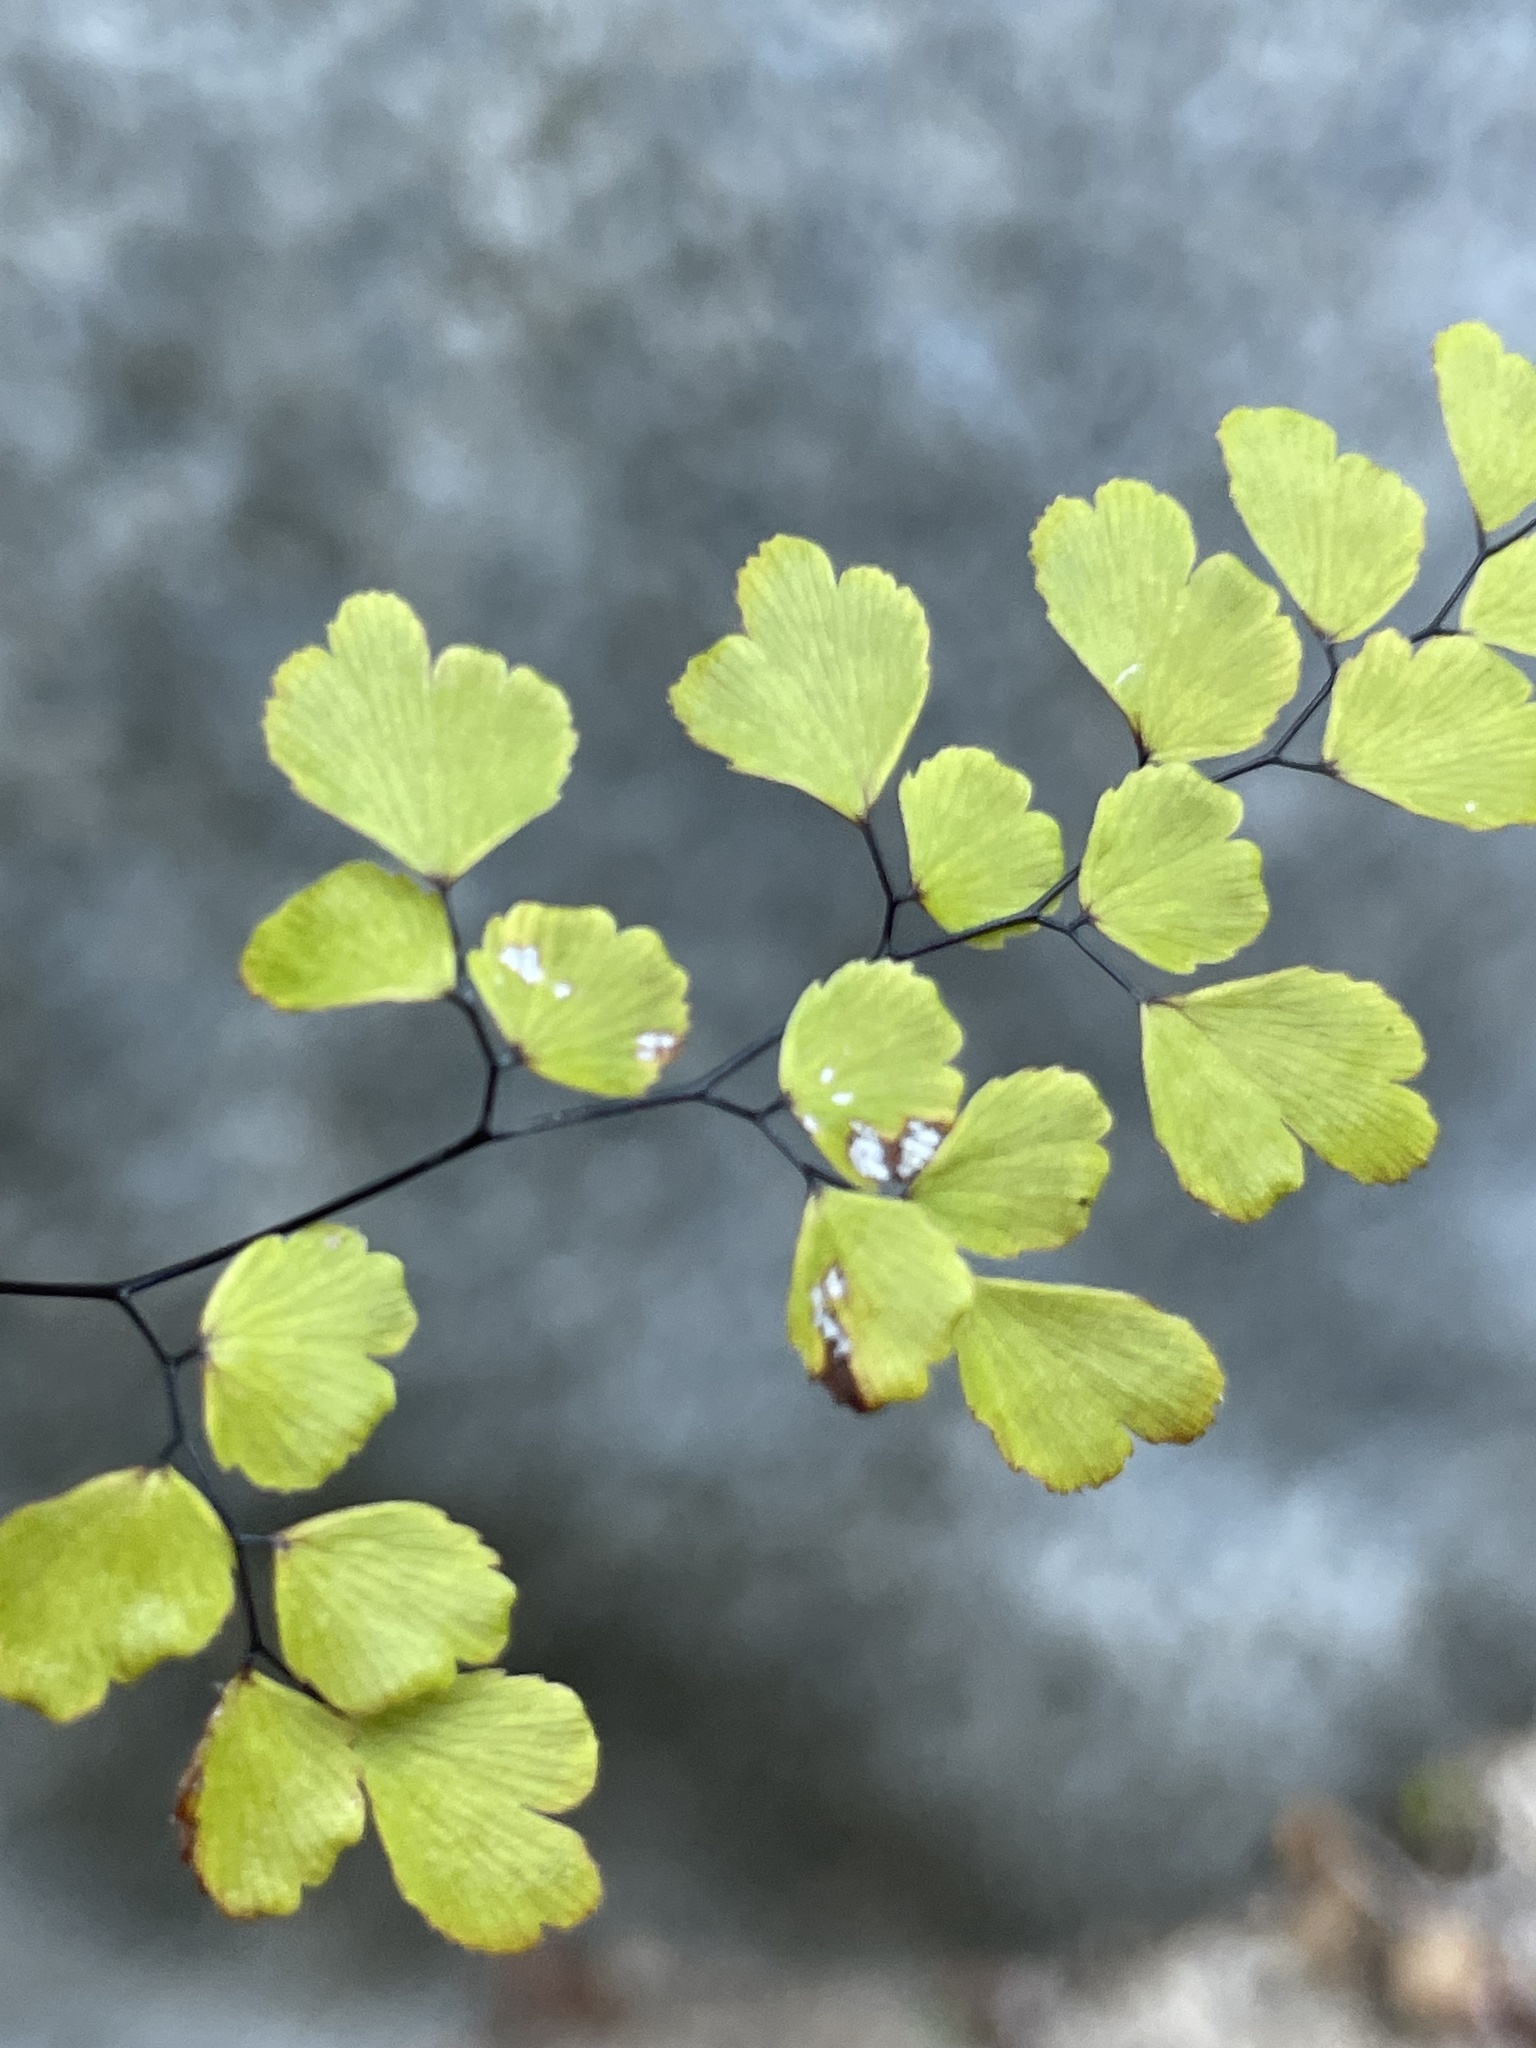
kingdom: Plantae
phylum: Tracheophyta
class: Polypodiopsida
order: Polypodiales
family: Pteridaceae
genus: Adiantum
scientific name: Adiantum capillus-veneris
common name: Maidenhair fern
